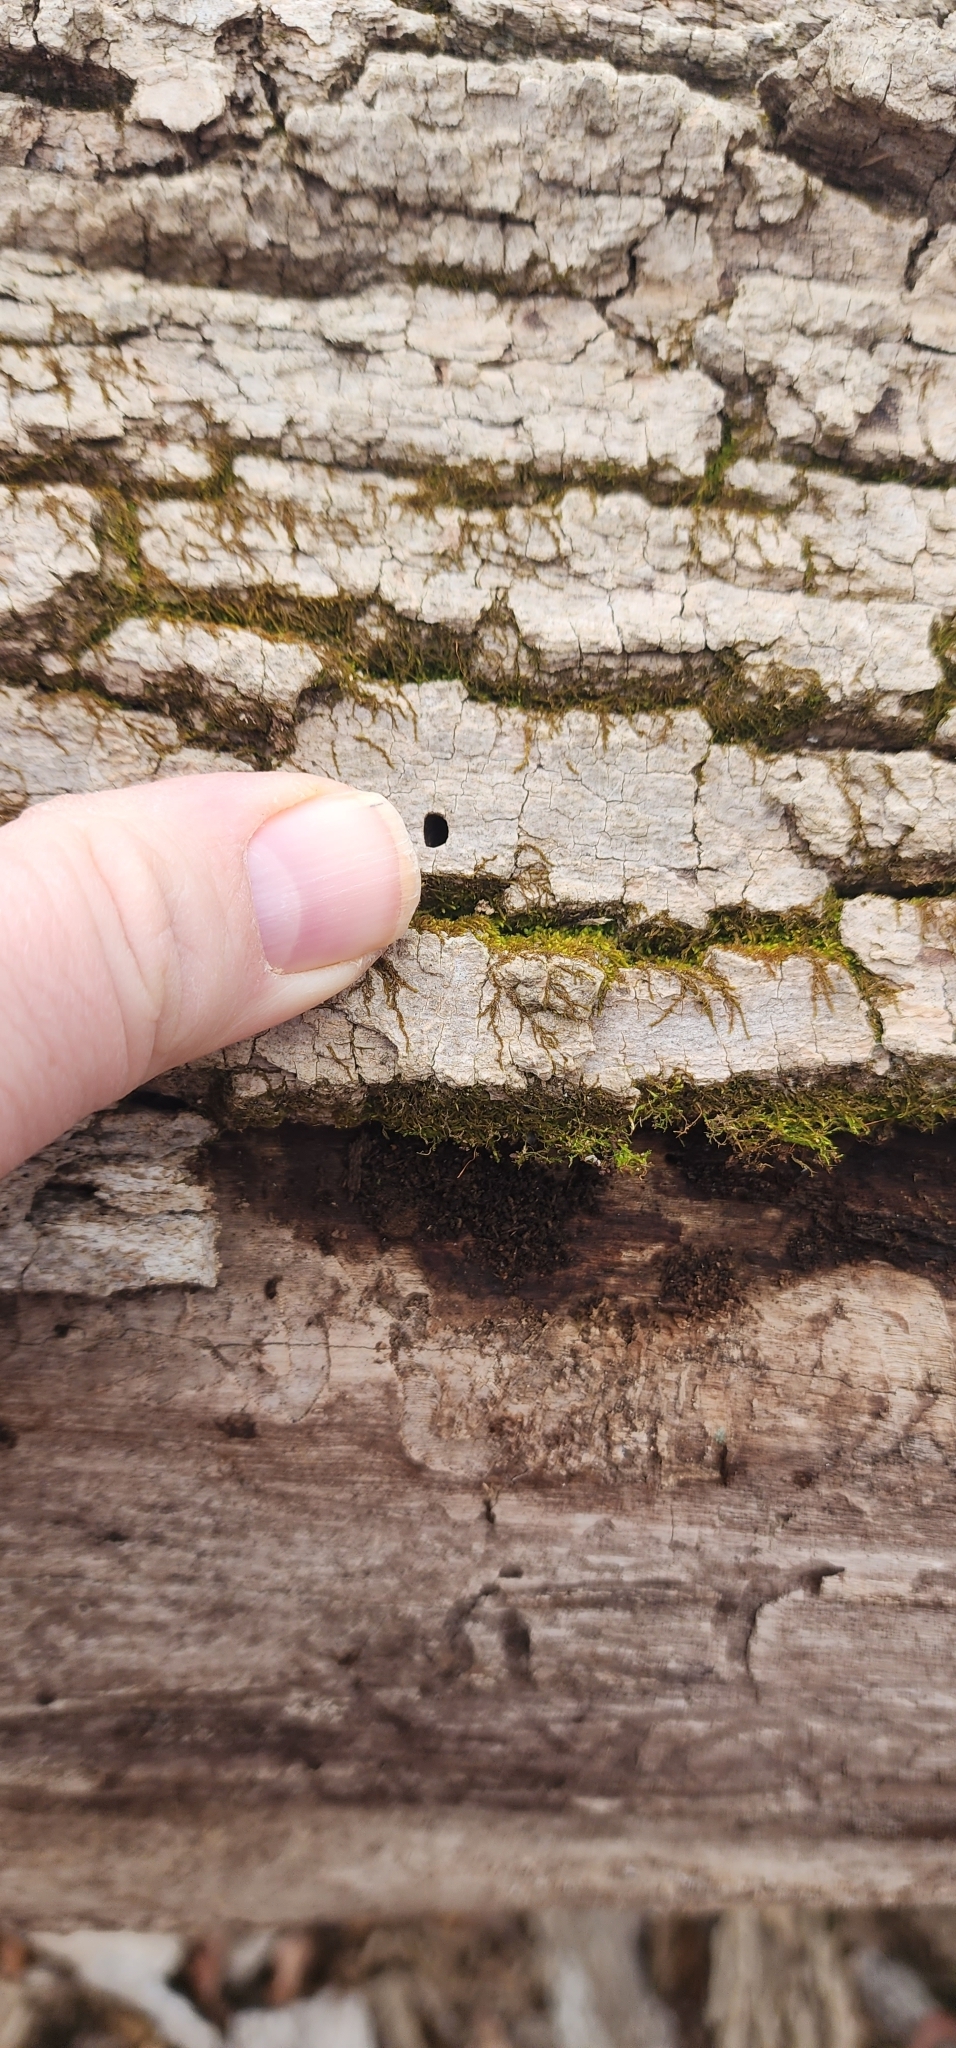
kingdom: Animalia
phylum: Arthropoda
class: Insecta
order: Coleoptera
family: Buprestidae
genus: Agrilus
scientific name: Agrilus planipennis
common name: Emerald ash borer
